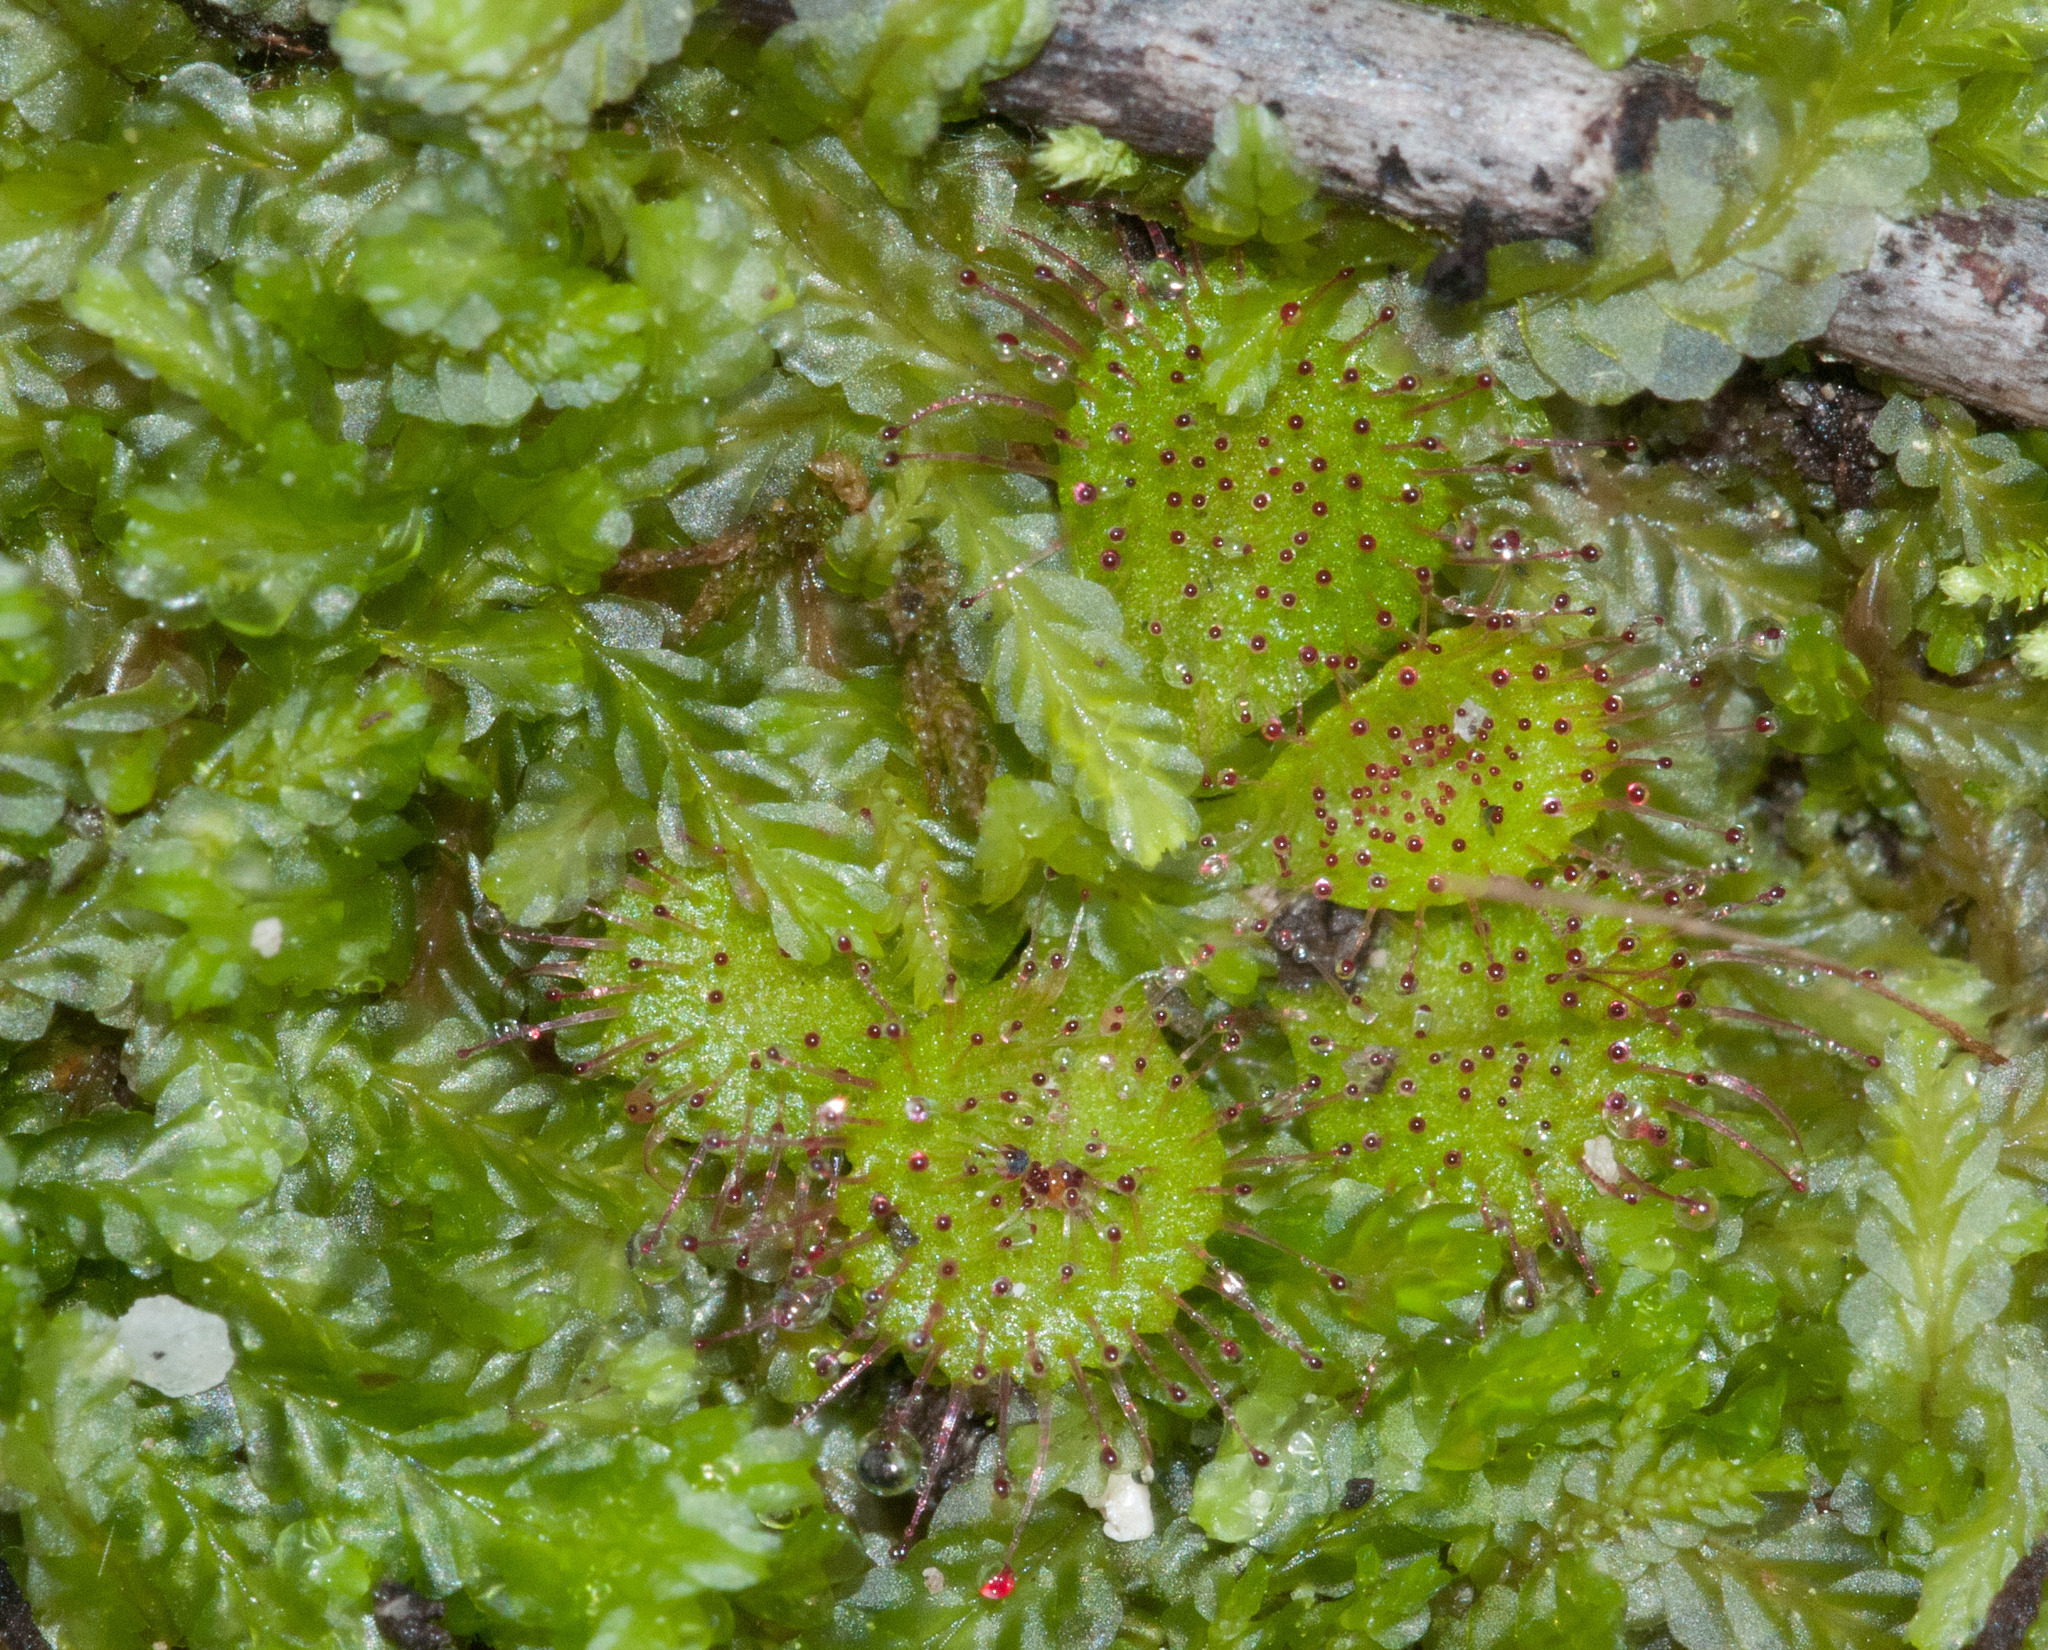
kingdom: Plantae
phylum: Tracheophyta
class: Magnoliopsida
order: Caryophyllales
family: Droseraceae
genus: Drosera
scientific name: Drosera aberrans
